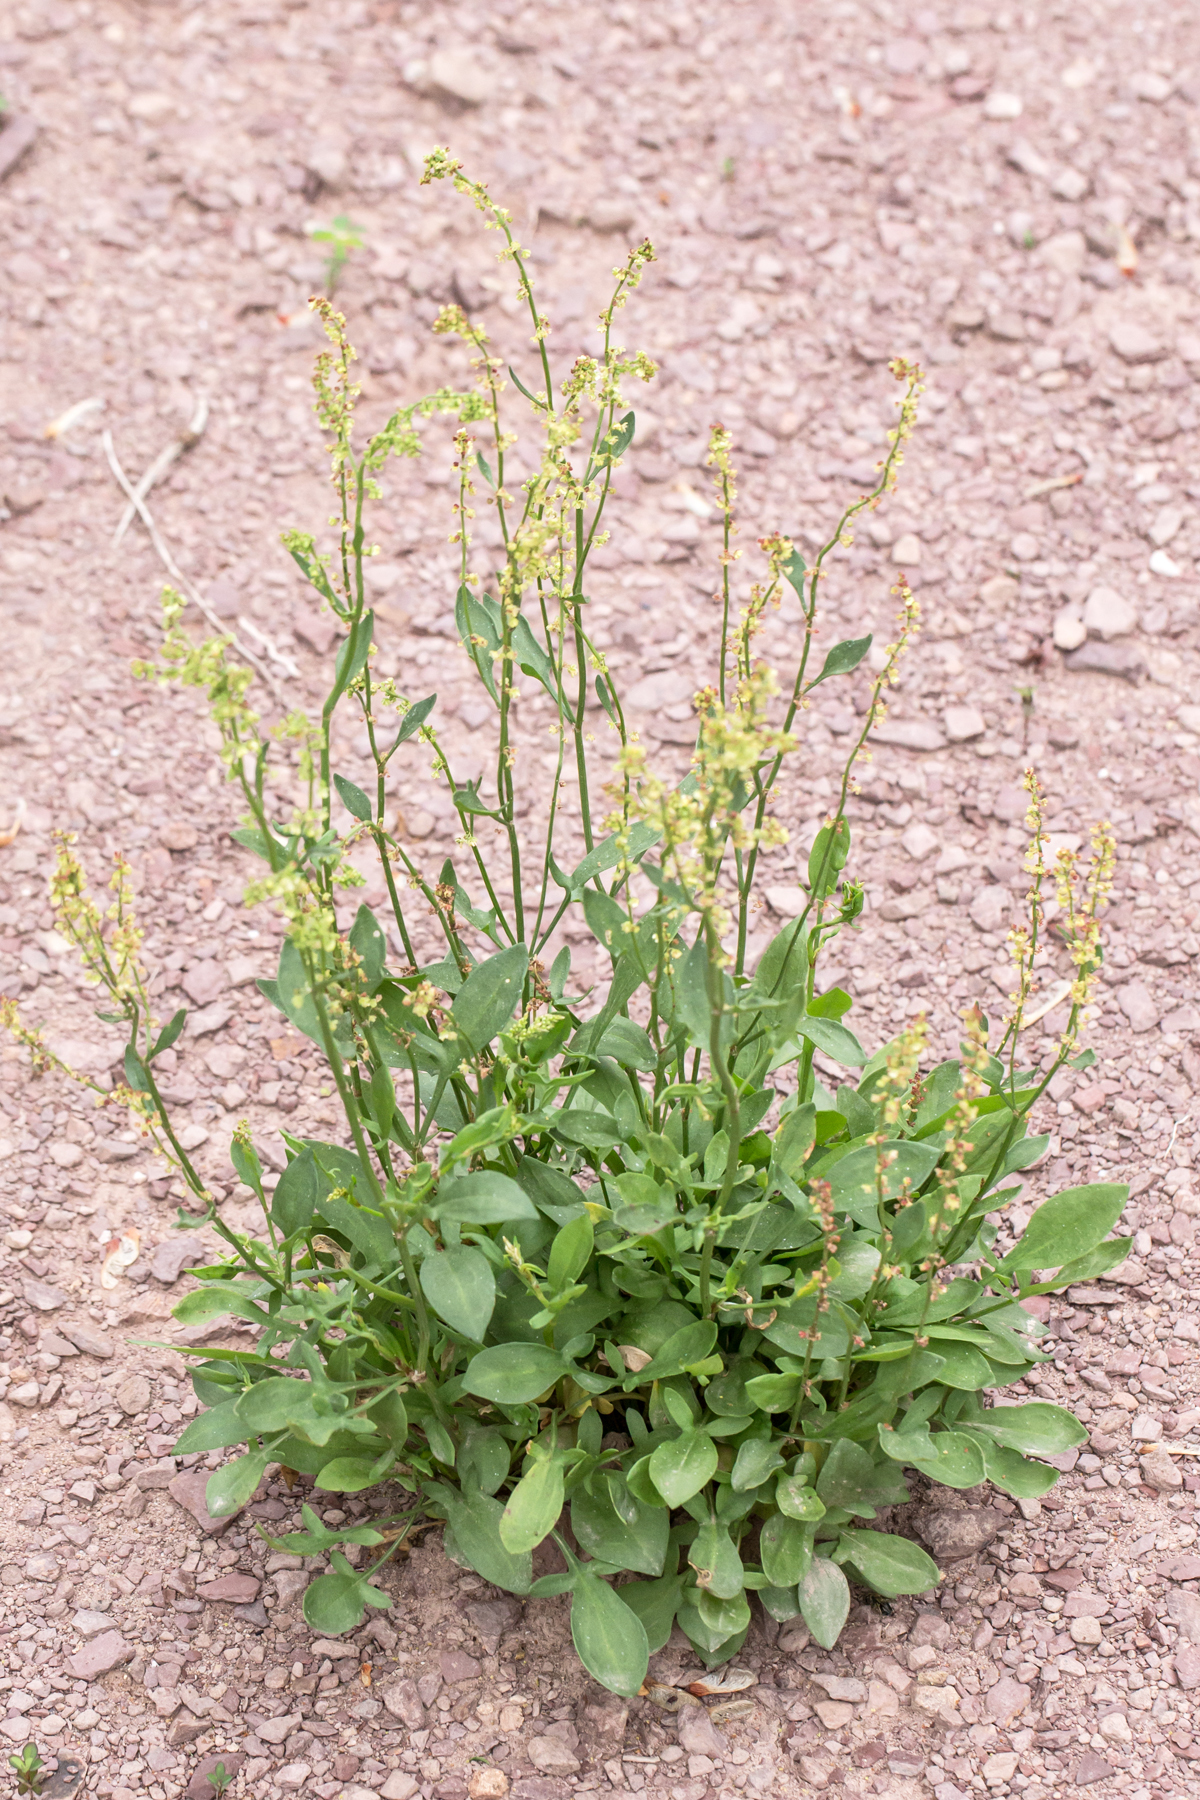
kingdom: Plantae
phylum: Tracheophyta
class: Magnoliopsida
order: Caryophyllales
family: Polygonaceae
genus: Rumex
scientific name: Rumex acetosella
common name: Common sheep sorrel
